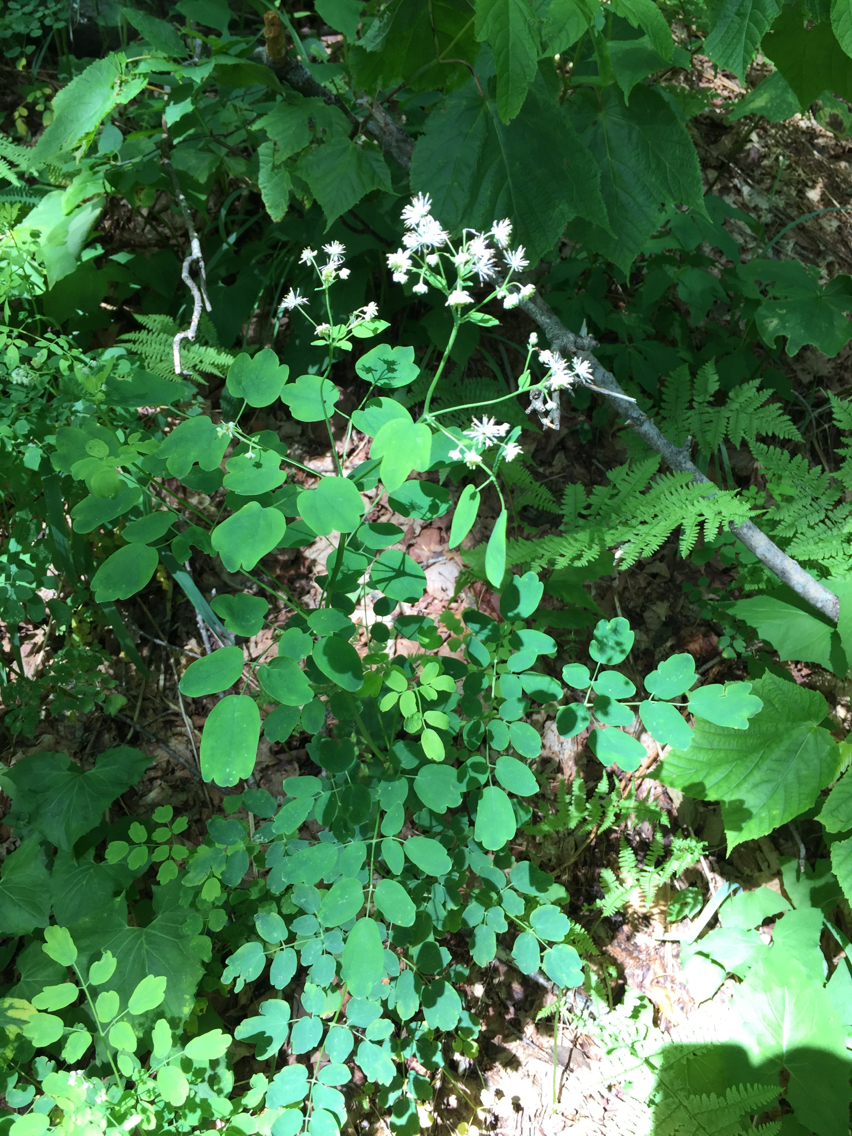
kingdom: Plantae
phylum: Tracheophyta
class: Magnoliopsida
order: Ranunculales
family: Ranunculaceae
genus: Thalictrum
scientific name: Thalictrum pubescens
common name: King-of-the-meadow
